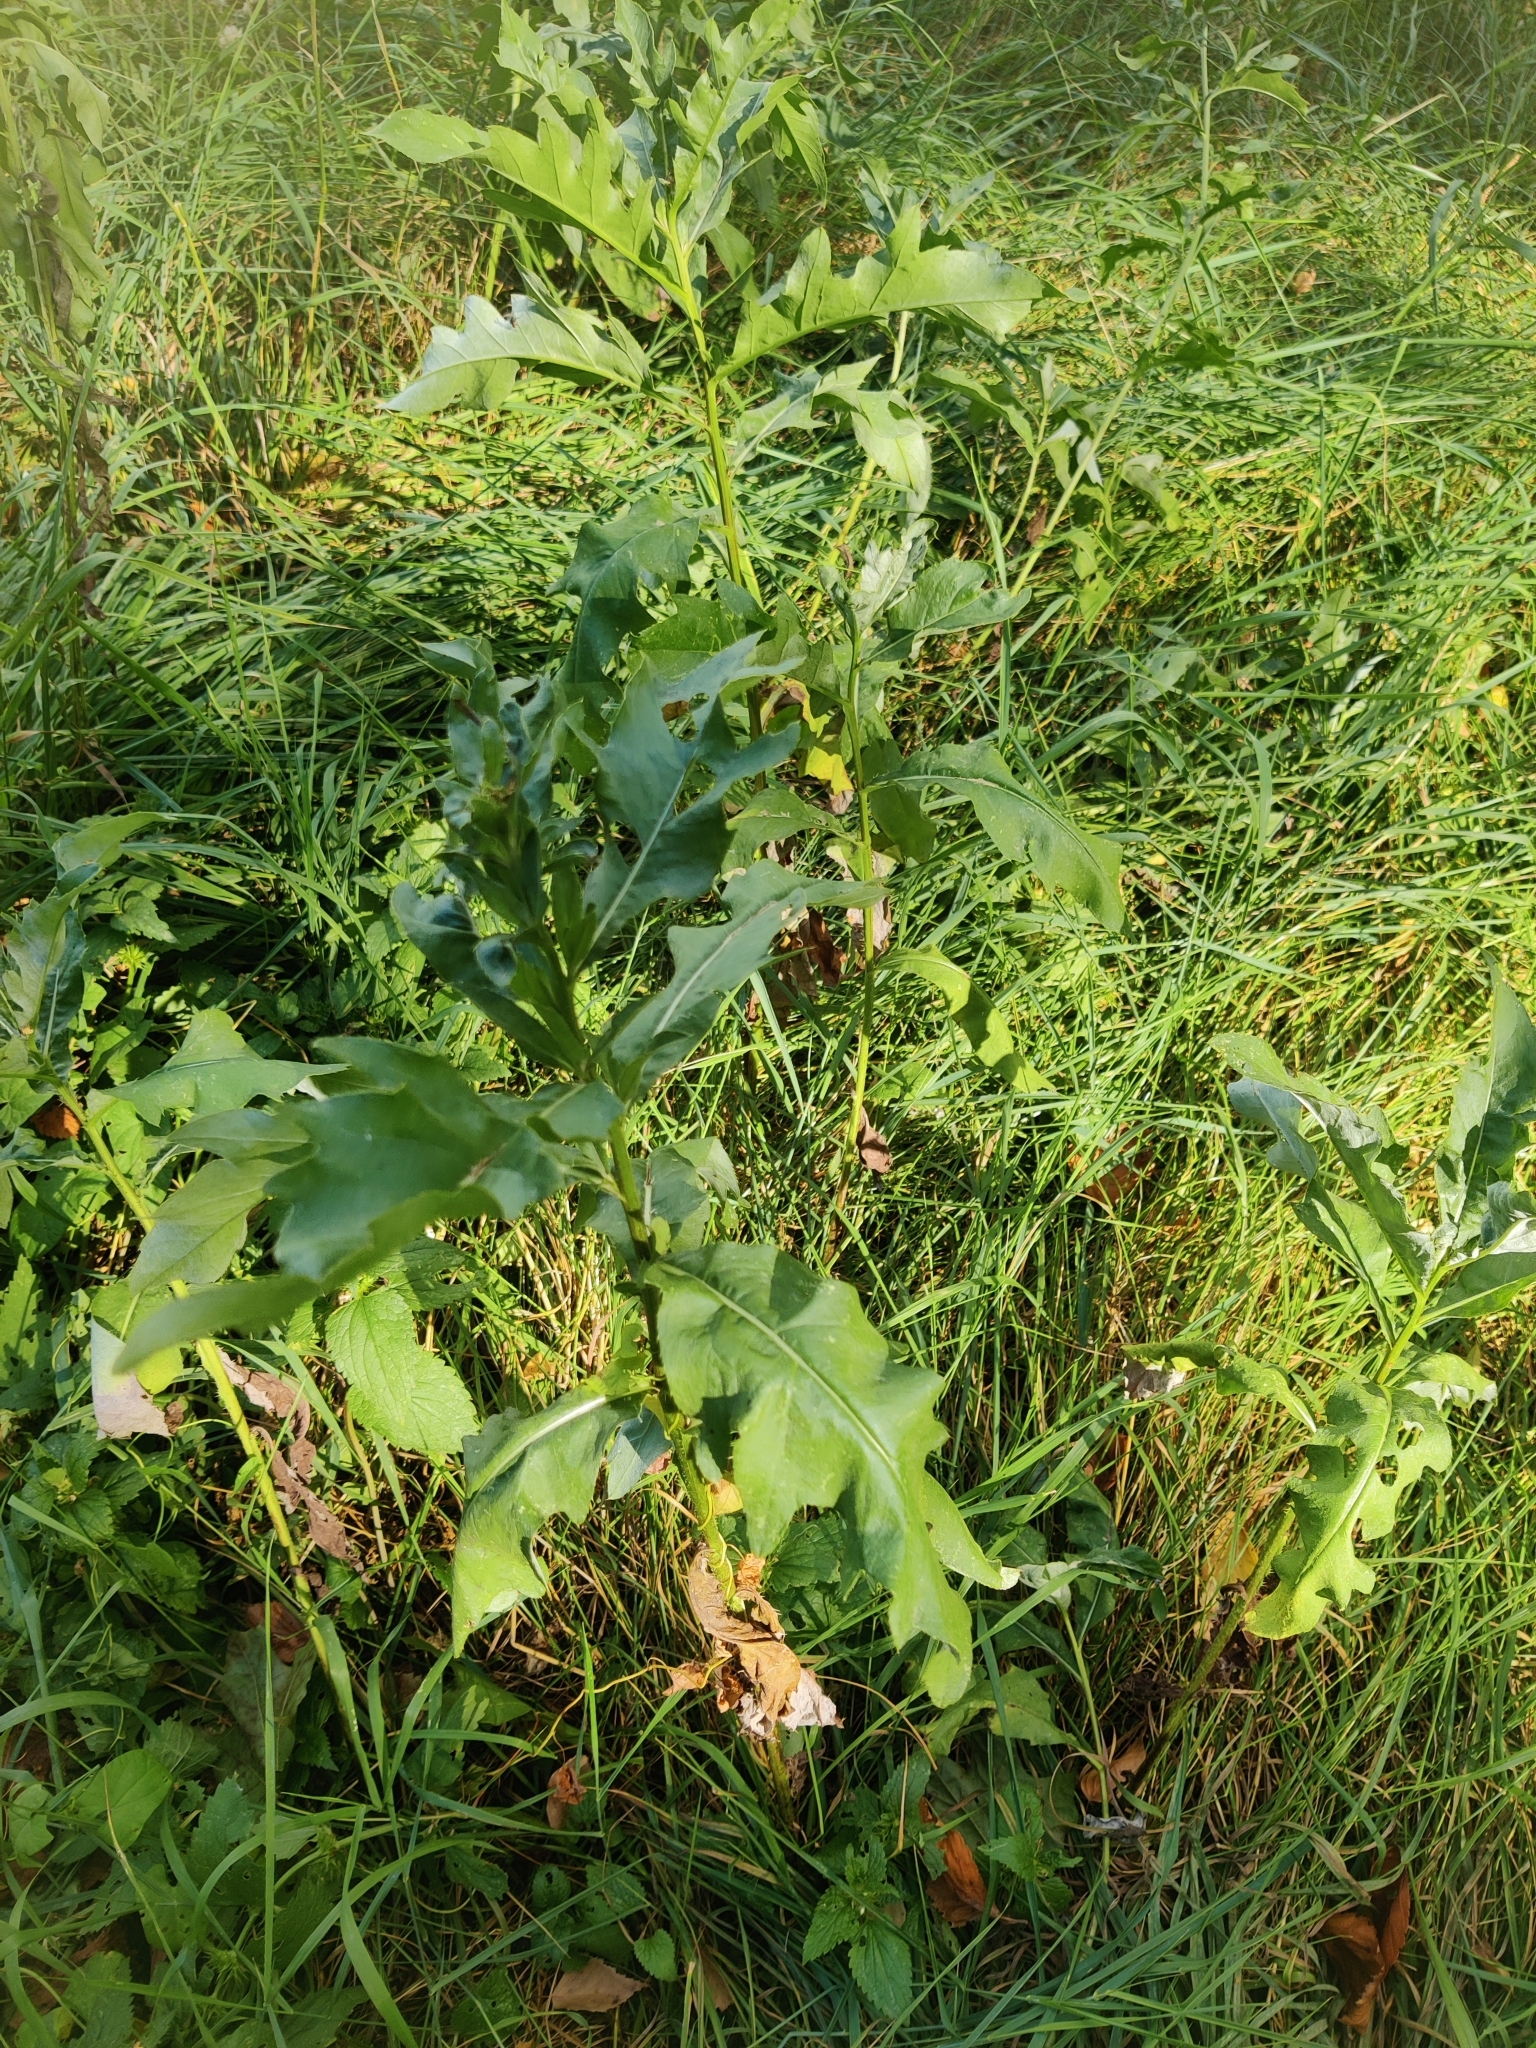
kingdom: Plantae
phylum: Tracheophyta
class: Magnoliopsida
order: Asterales
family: Asteraceae
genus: Cirsium
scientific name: Cirsium arvense
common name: Creeping thistle
